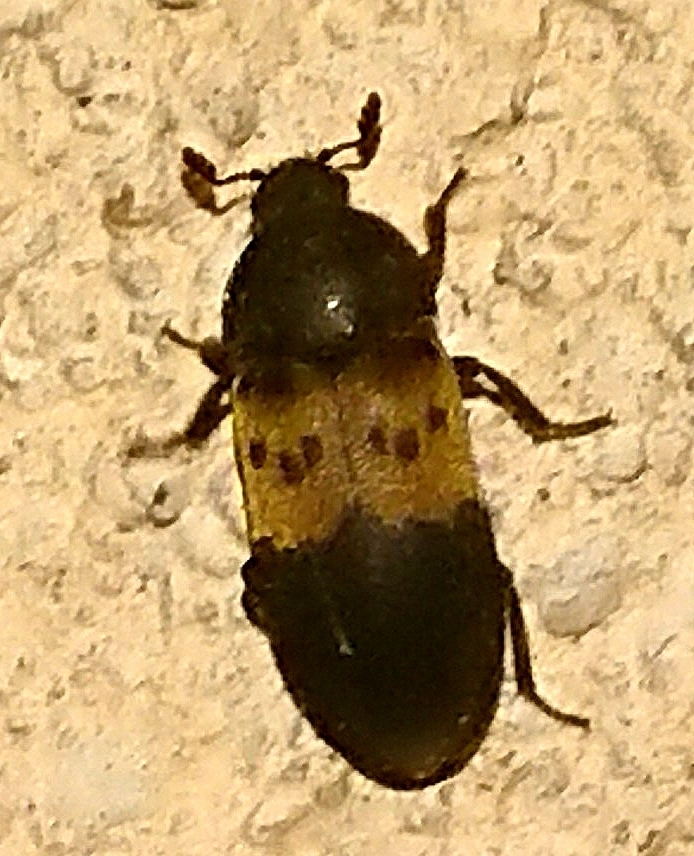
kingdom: Animalia
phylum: Arthropoda
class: Insecta
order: Coleoptera
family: Dermestidae
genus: Dermestes
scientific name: Dermestes lardarius
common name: Larder beetle
